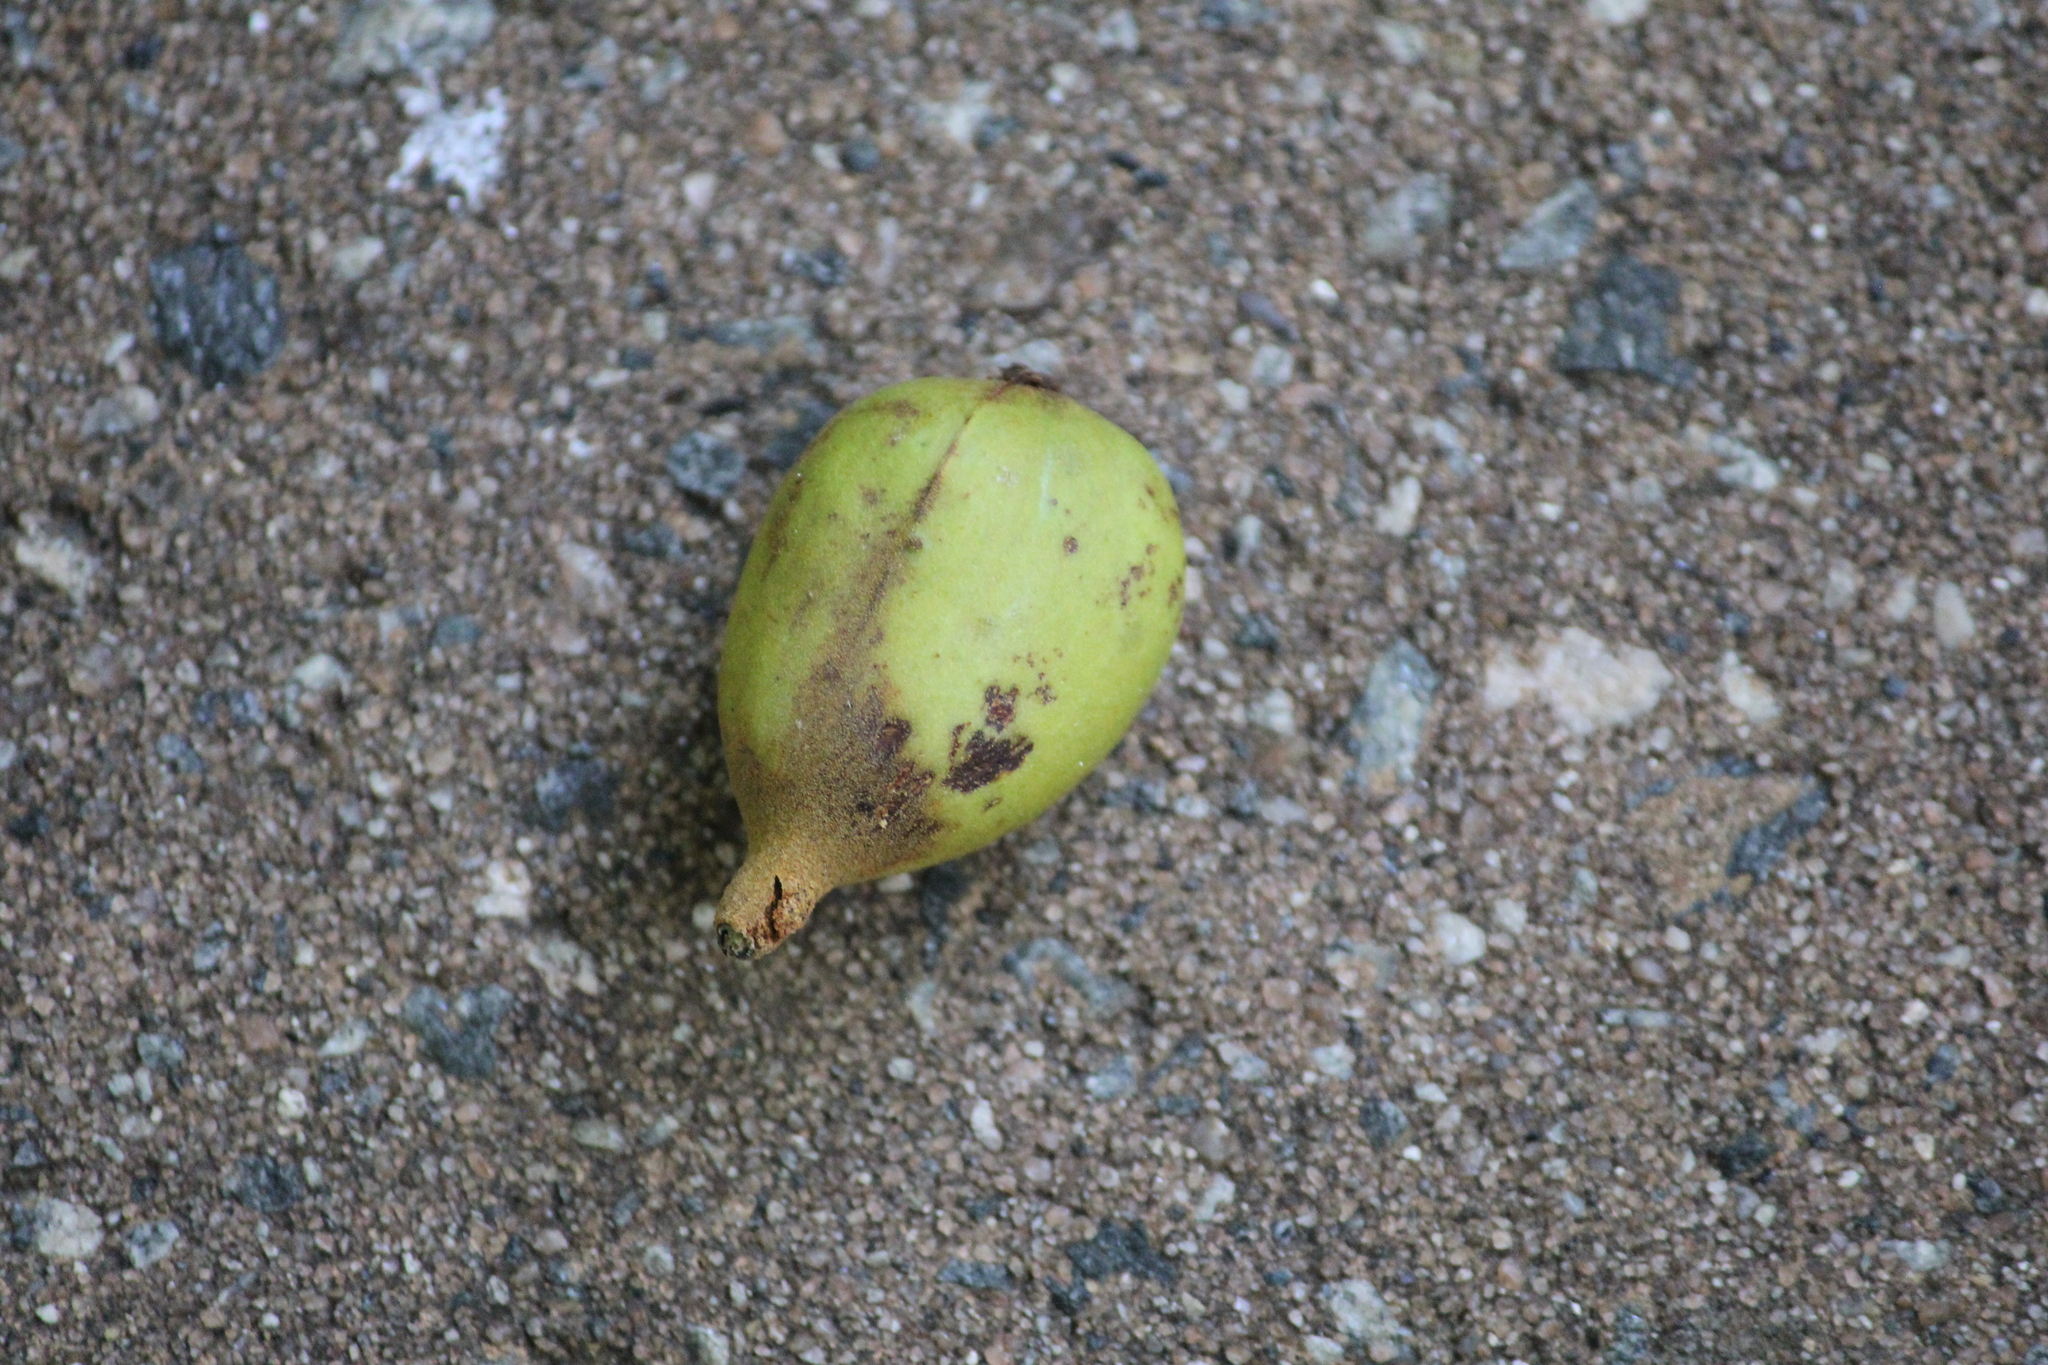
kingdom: Plantae
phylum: Tracheophyta
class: Magnoliopsida
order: Fagales
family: Juglandaceae
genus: Carya
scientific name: Carya glabra
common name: Pignut hickory
